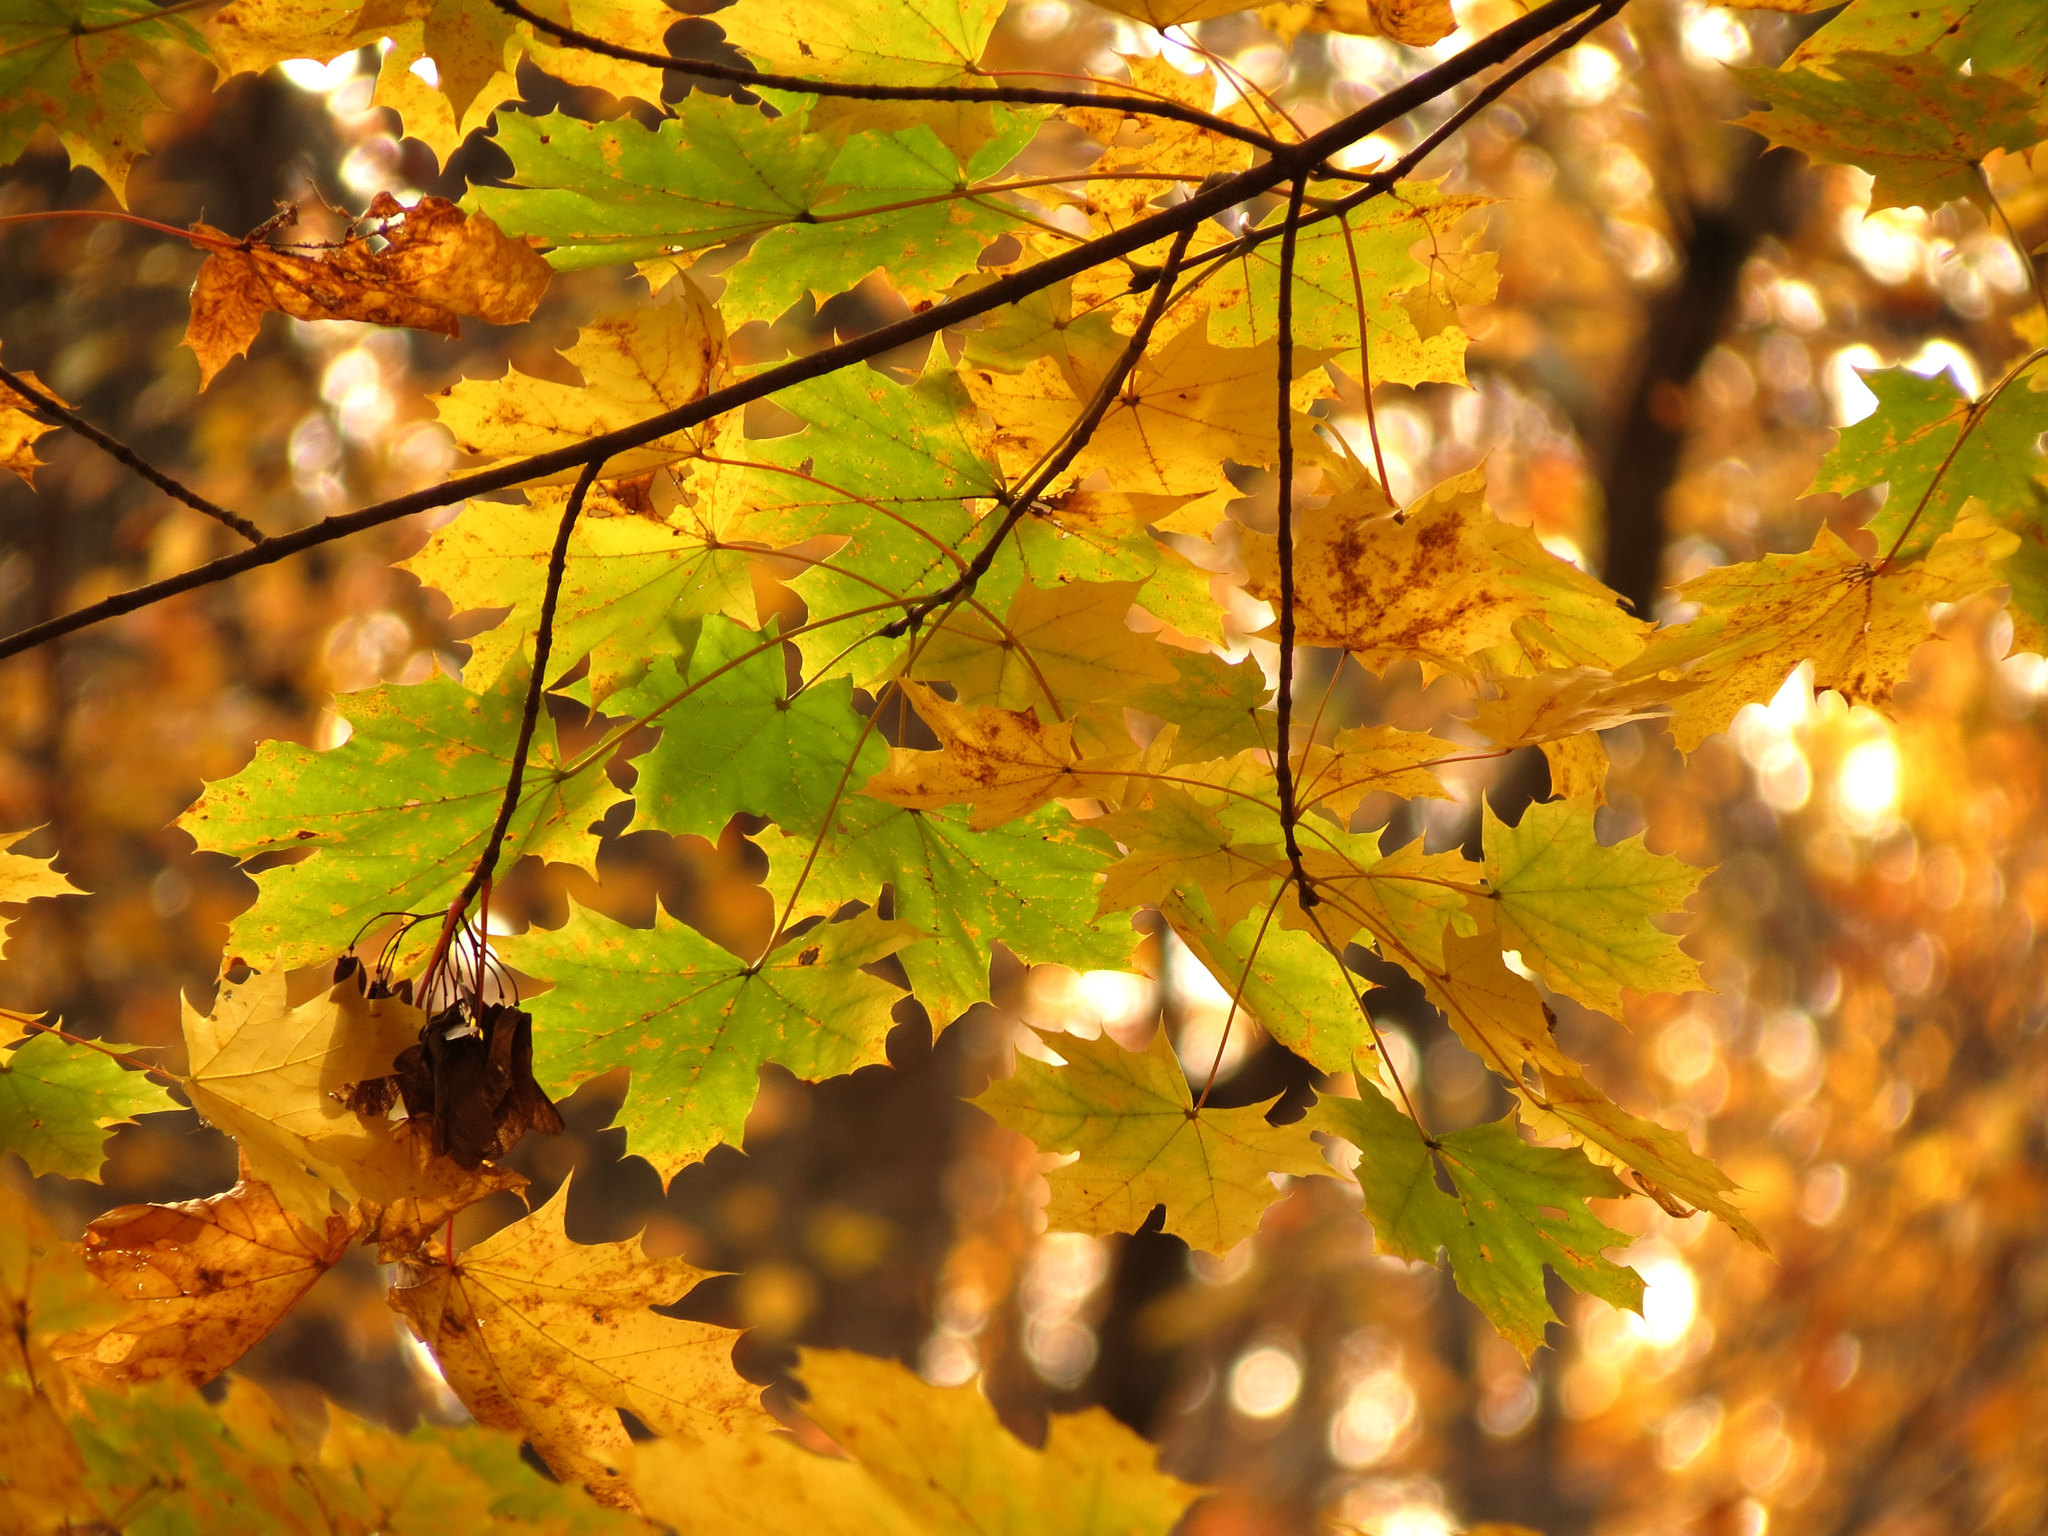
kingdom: Plantae
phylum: Tracheophyta
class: Magnoliopsida
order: Sapindales
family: Sapindaceae
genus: Acer
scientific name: Acer platanoides
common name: Norway maple
